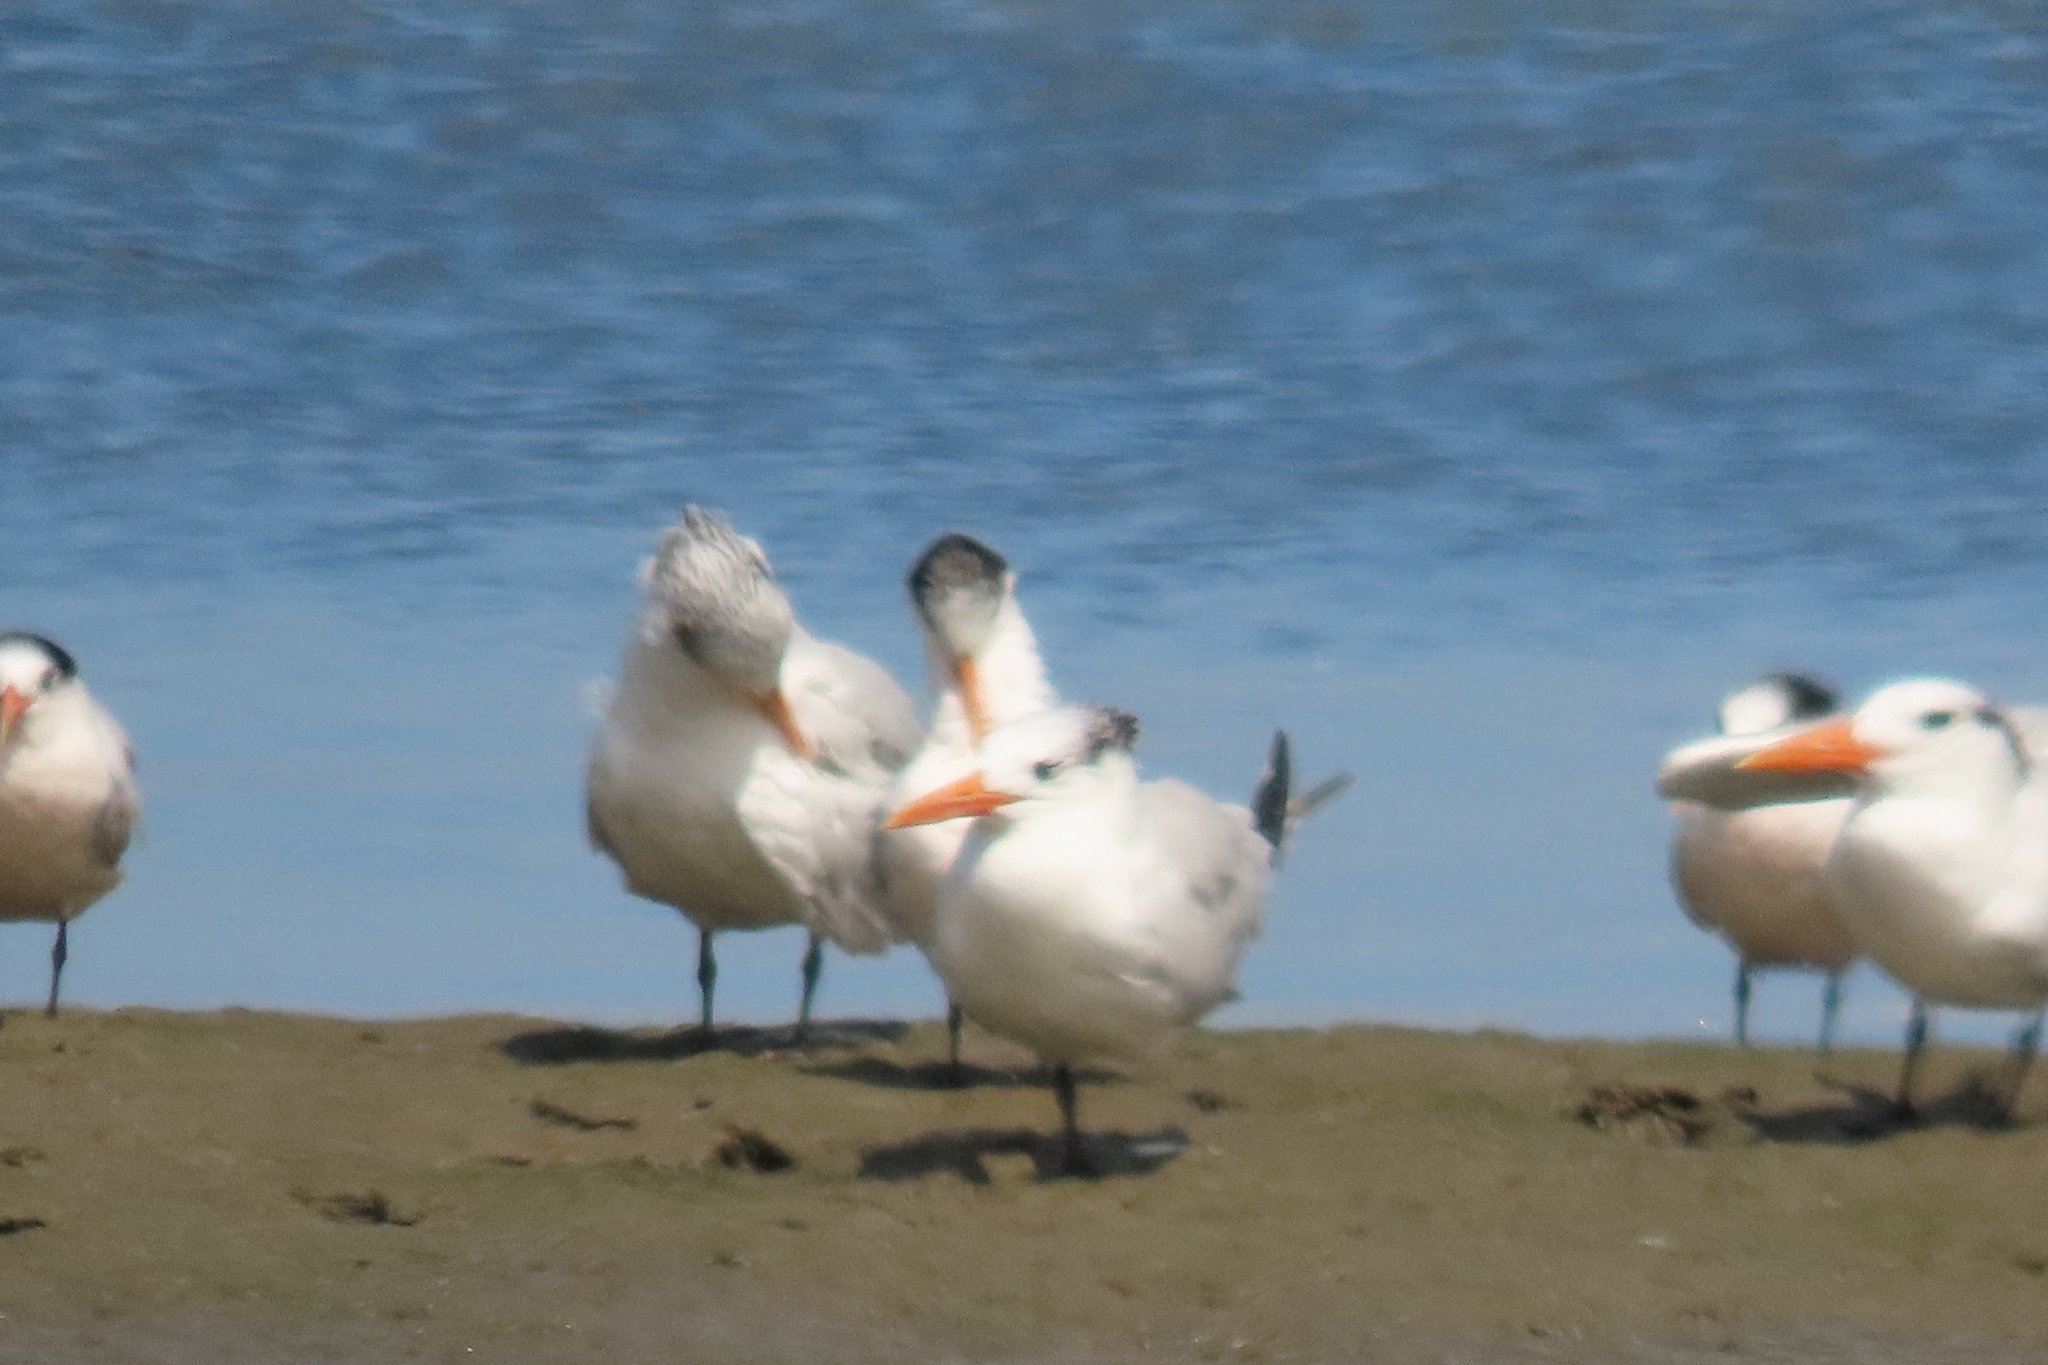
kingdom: Animalia
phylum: Chordata
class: Aves
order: Charadriiformes
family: Laridae
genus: Thalasseus
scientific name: Thalasseus elegans
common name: Elegant tern
